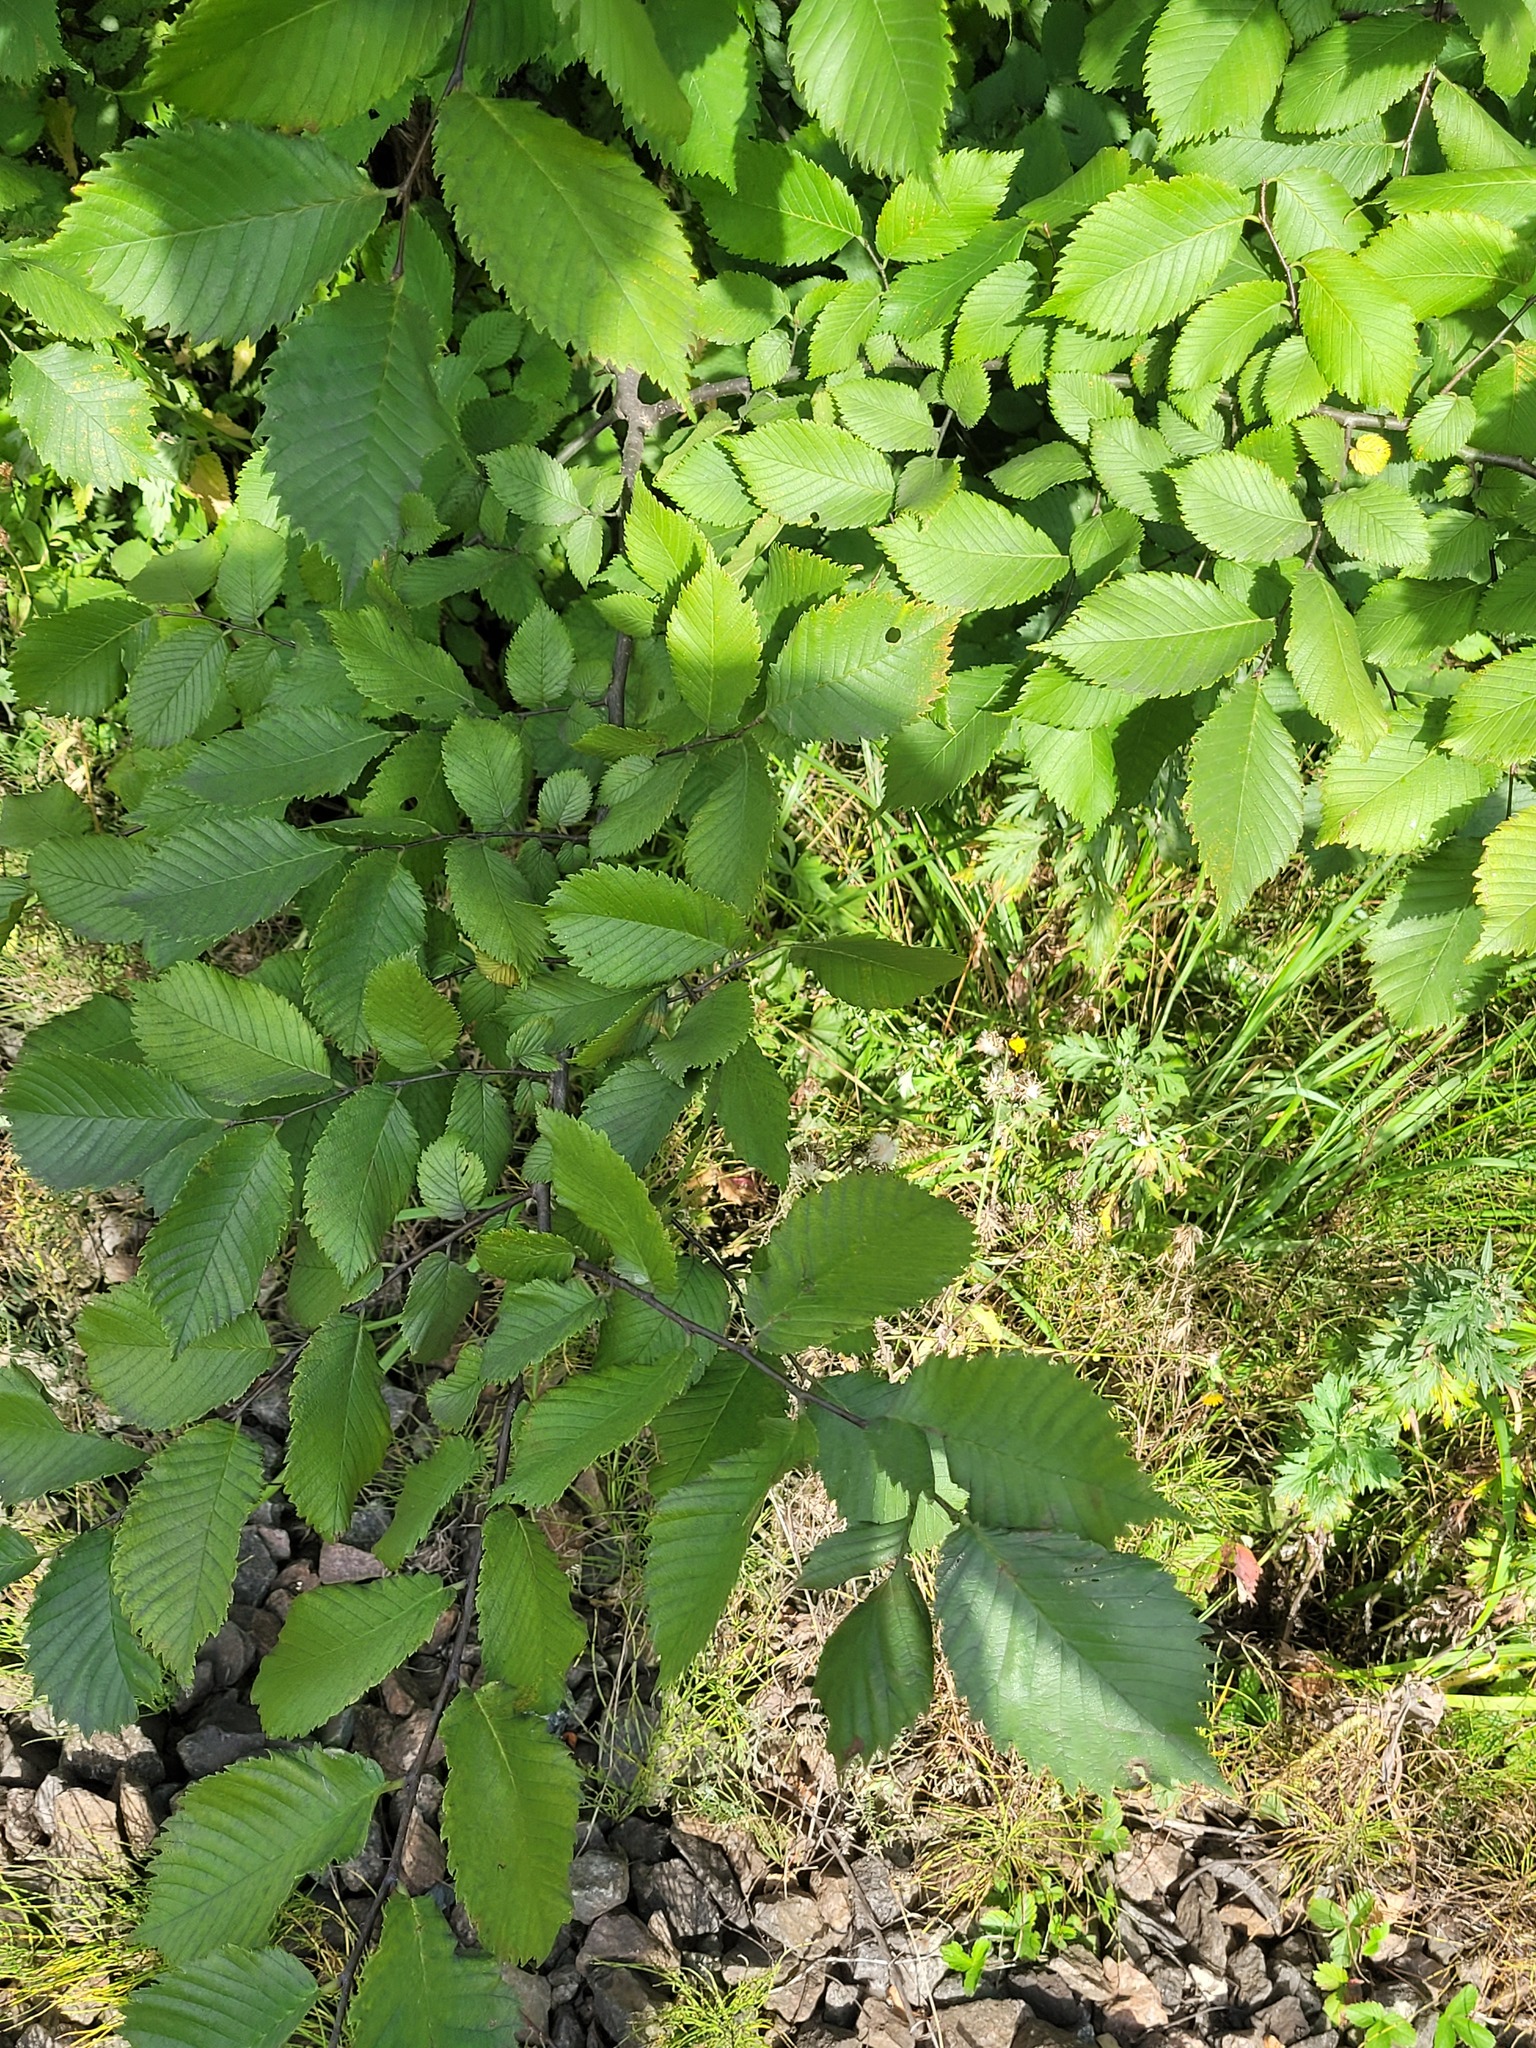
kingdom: Plantae
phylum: Tracheophyta
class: Magnoliopsida
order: Rosales
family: Ulmaceae
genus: Ulmus
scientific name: Ulmus laevis
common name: European white-elm
